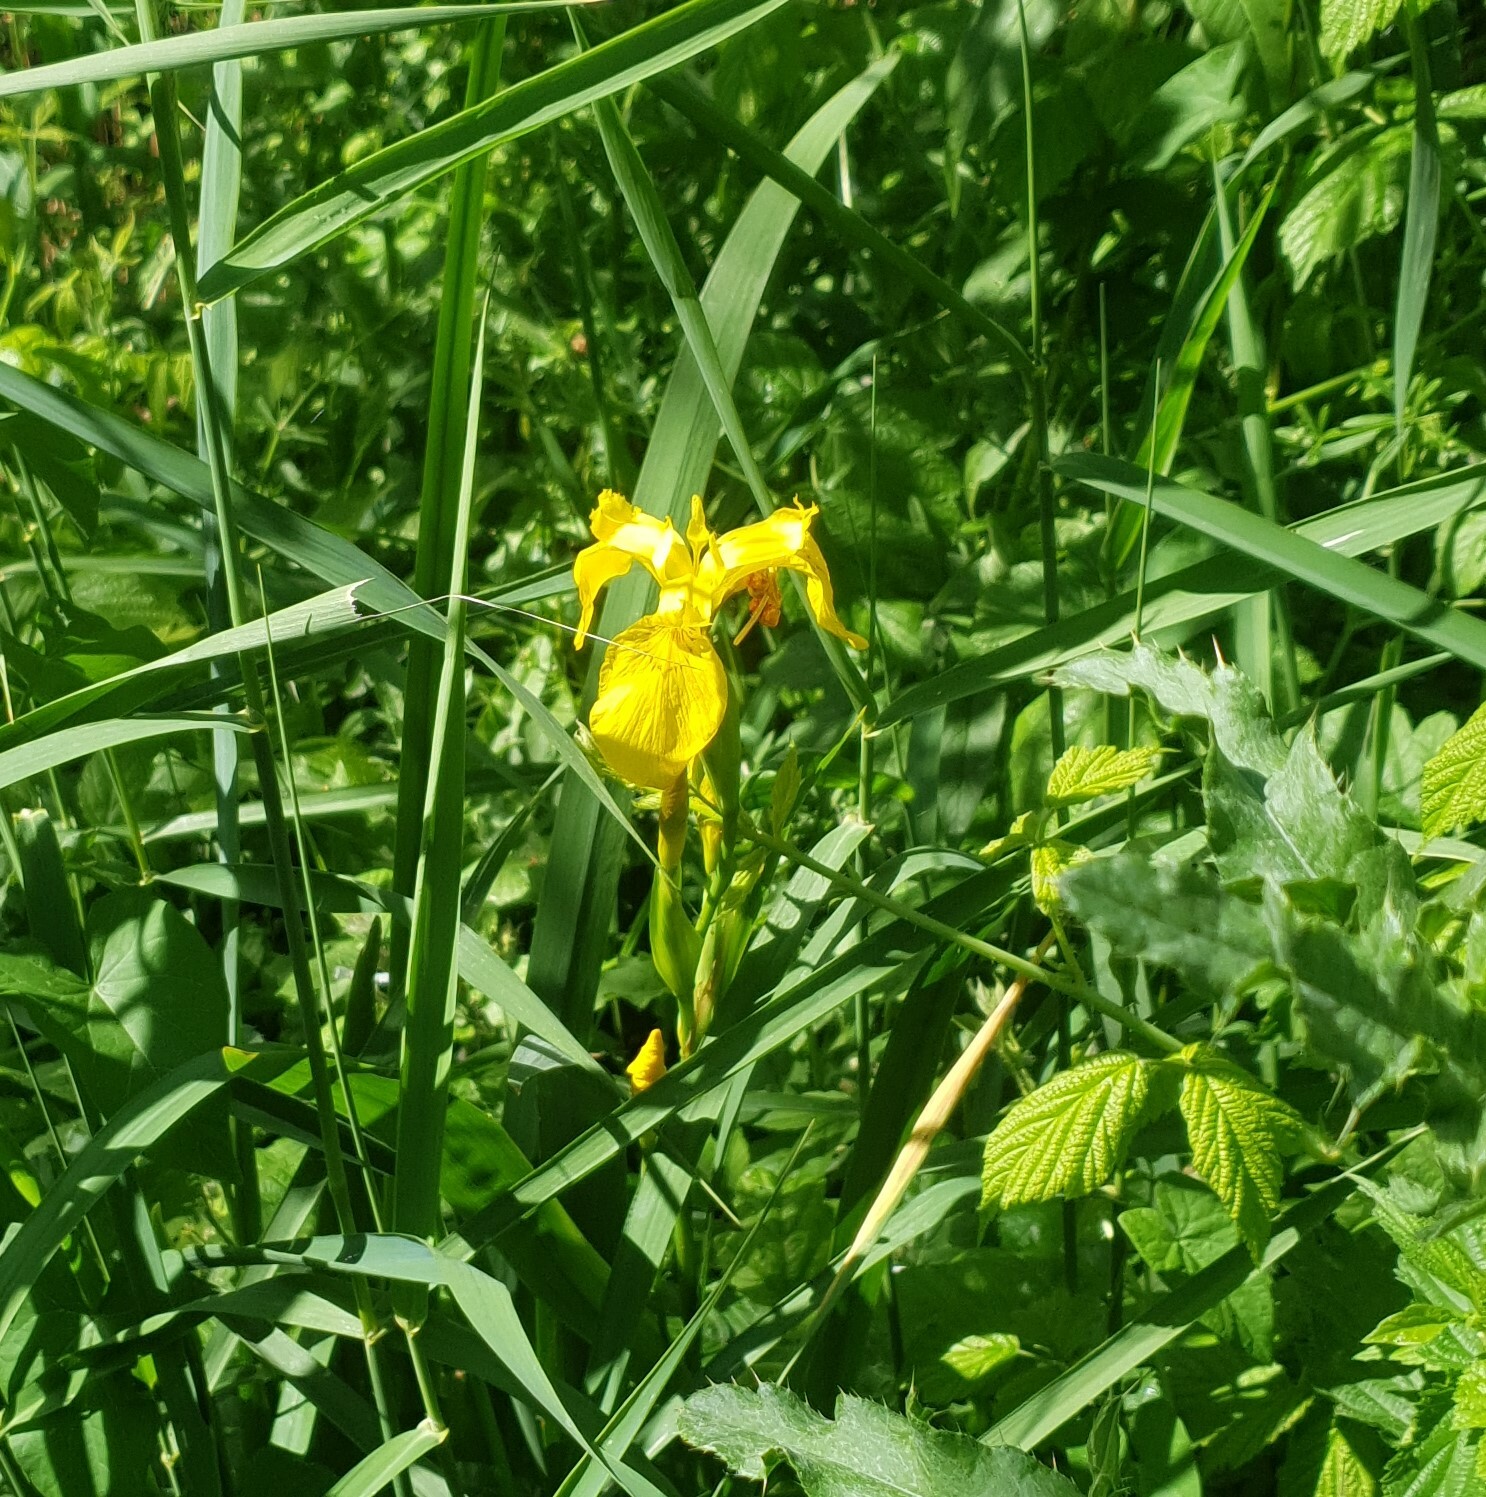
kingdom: Plantae
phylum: Tracheophyta
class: Liliopsida
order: Asparagales
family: Iridaceae
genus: Iris
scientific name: Iris pseudacorus
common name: Yellow flag
